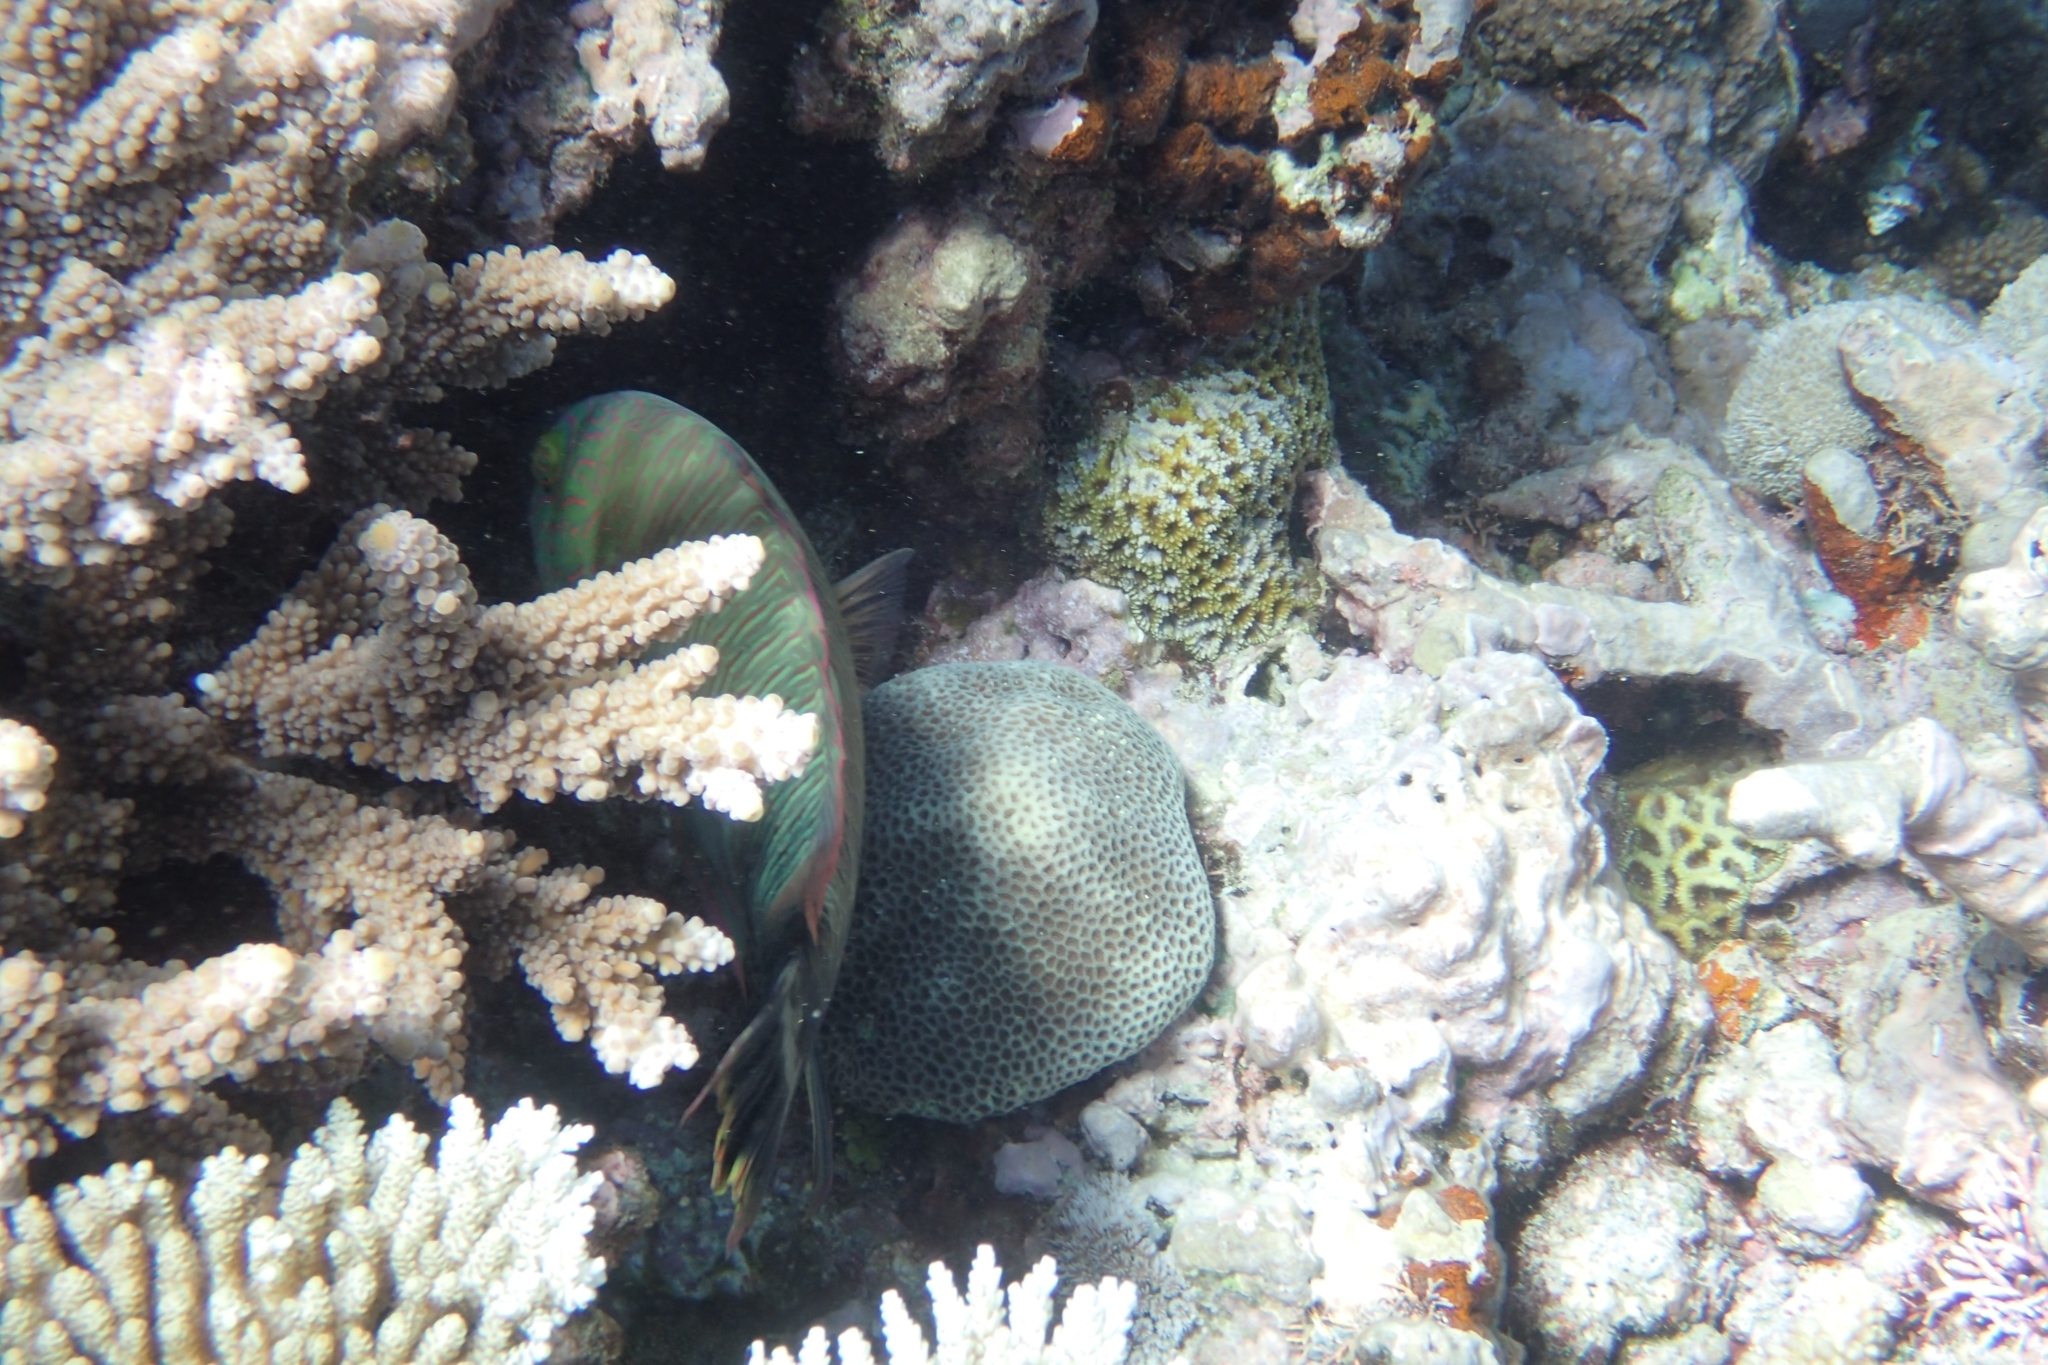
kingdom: Animalia
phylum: Chordata
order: Perciformes
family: Labridae
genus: Cheilinus
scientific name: Cheilinus trilobatus
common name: Tripletail maori wrasse
